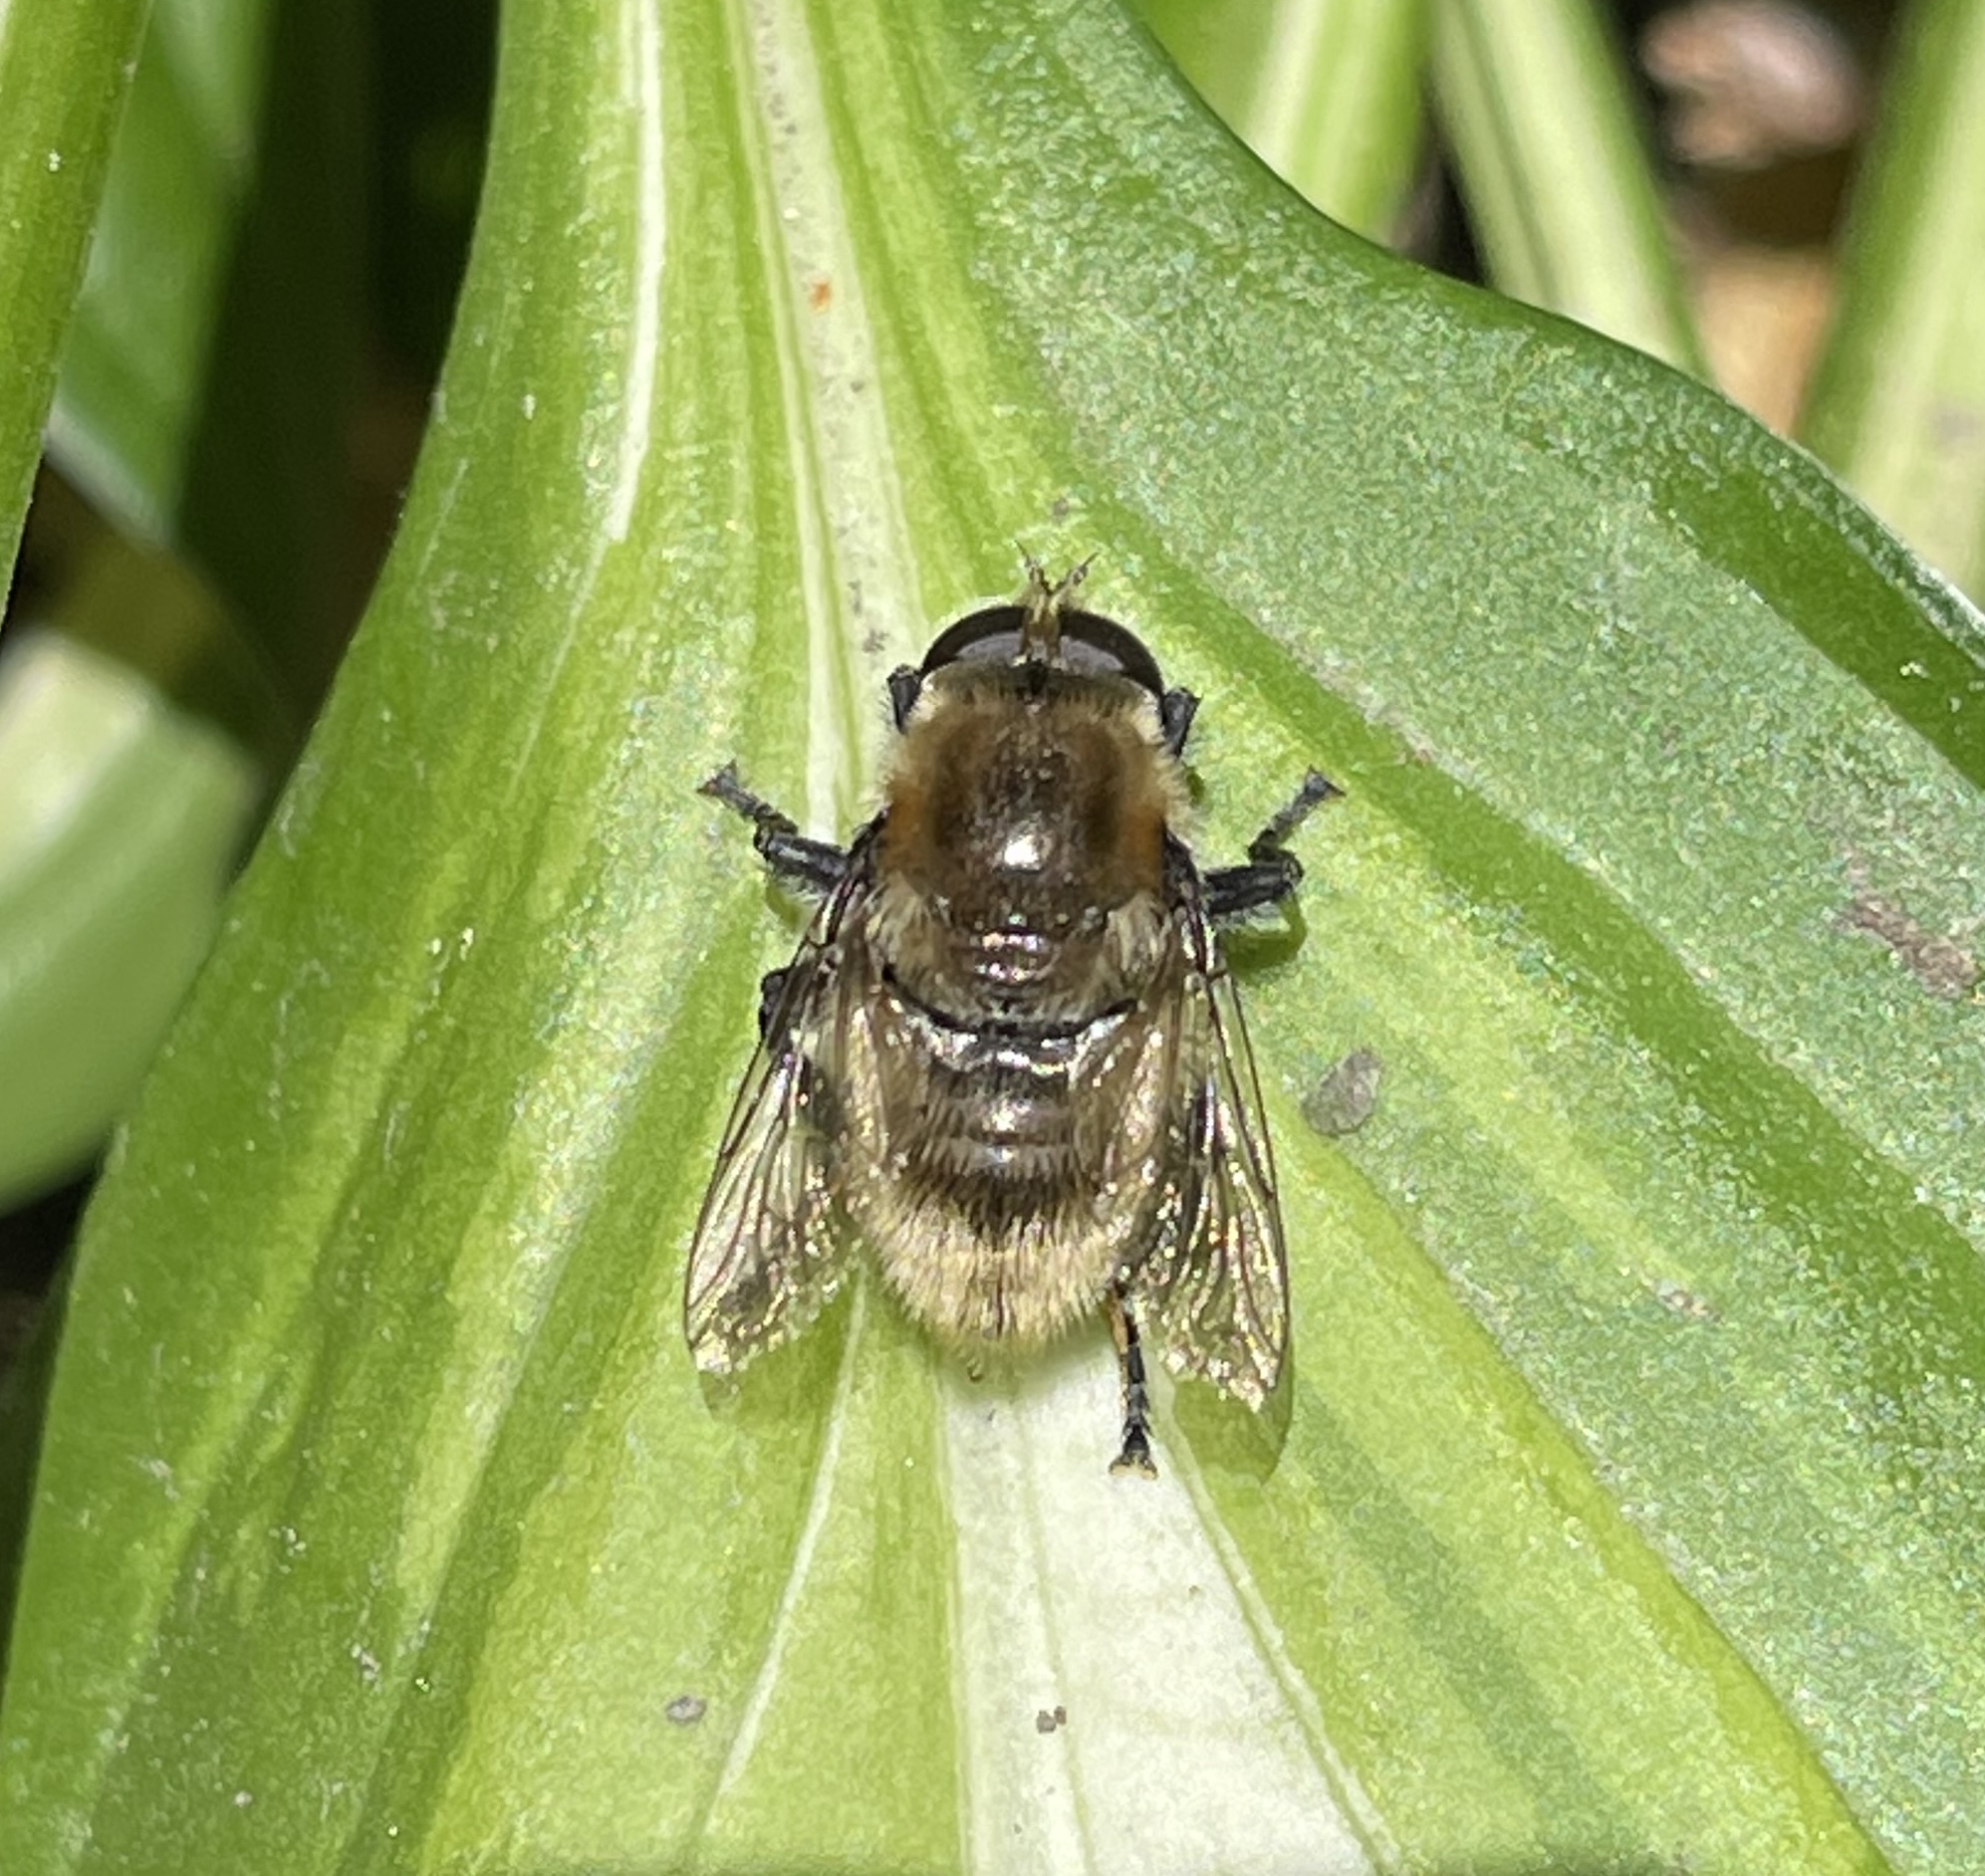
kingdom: Animalia
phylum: Arthropoda
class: Insecta
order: Diptera
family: Syrphidae
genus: Merodon
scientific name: Merodon equestris
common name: Greater bulb-fly
